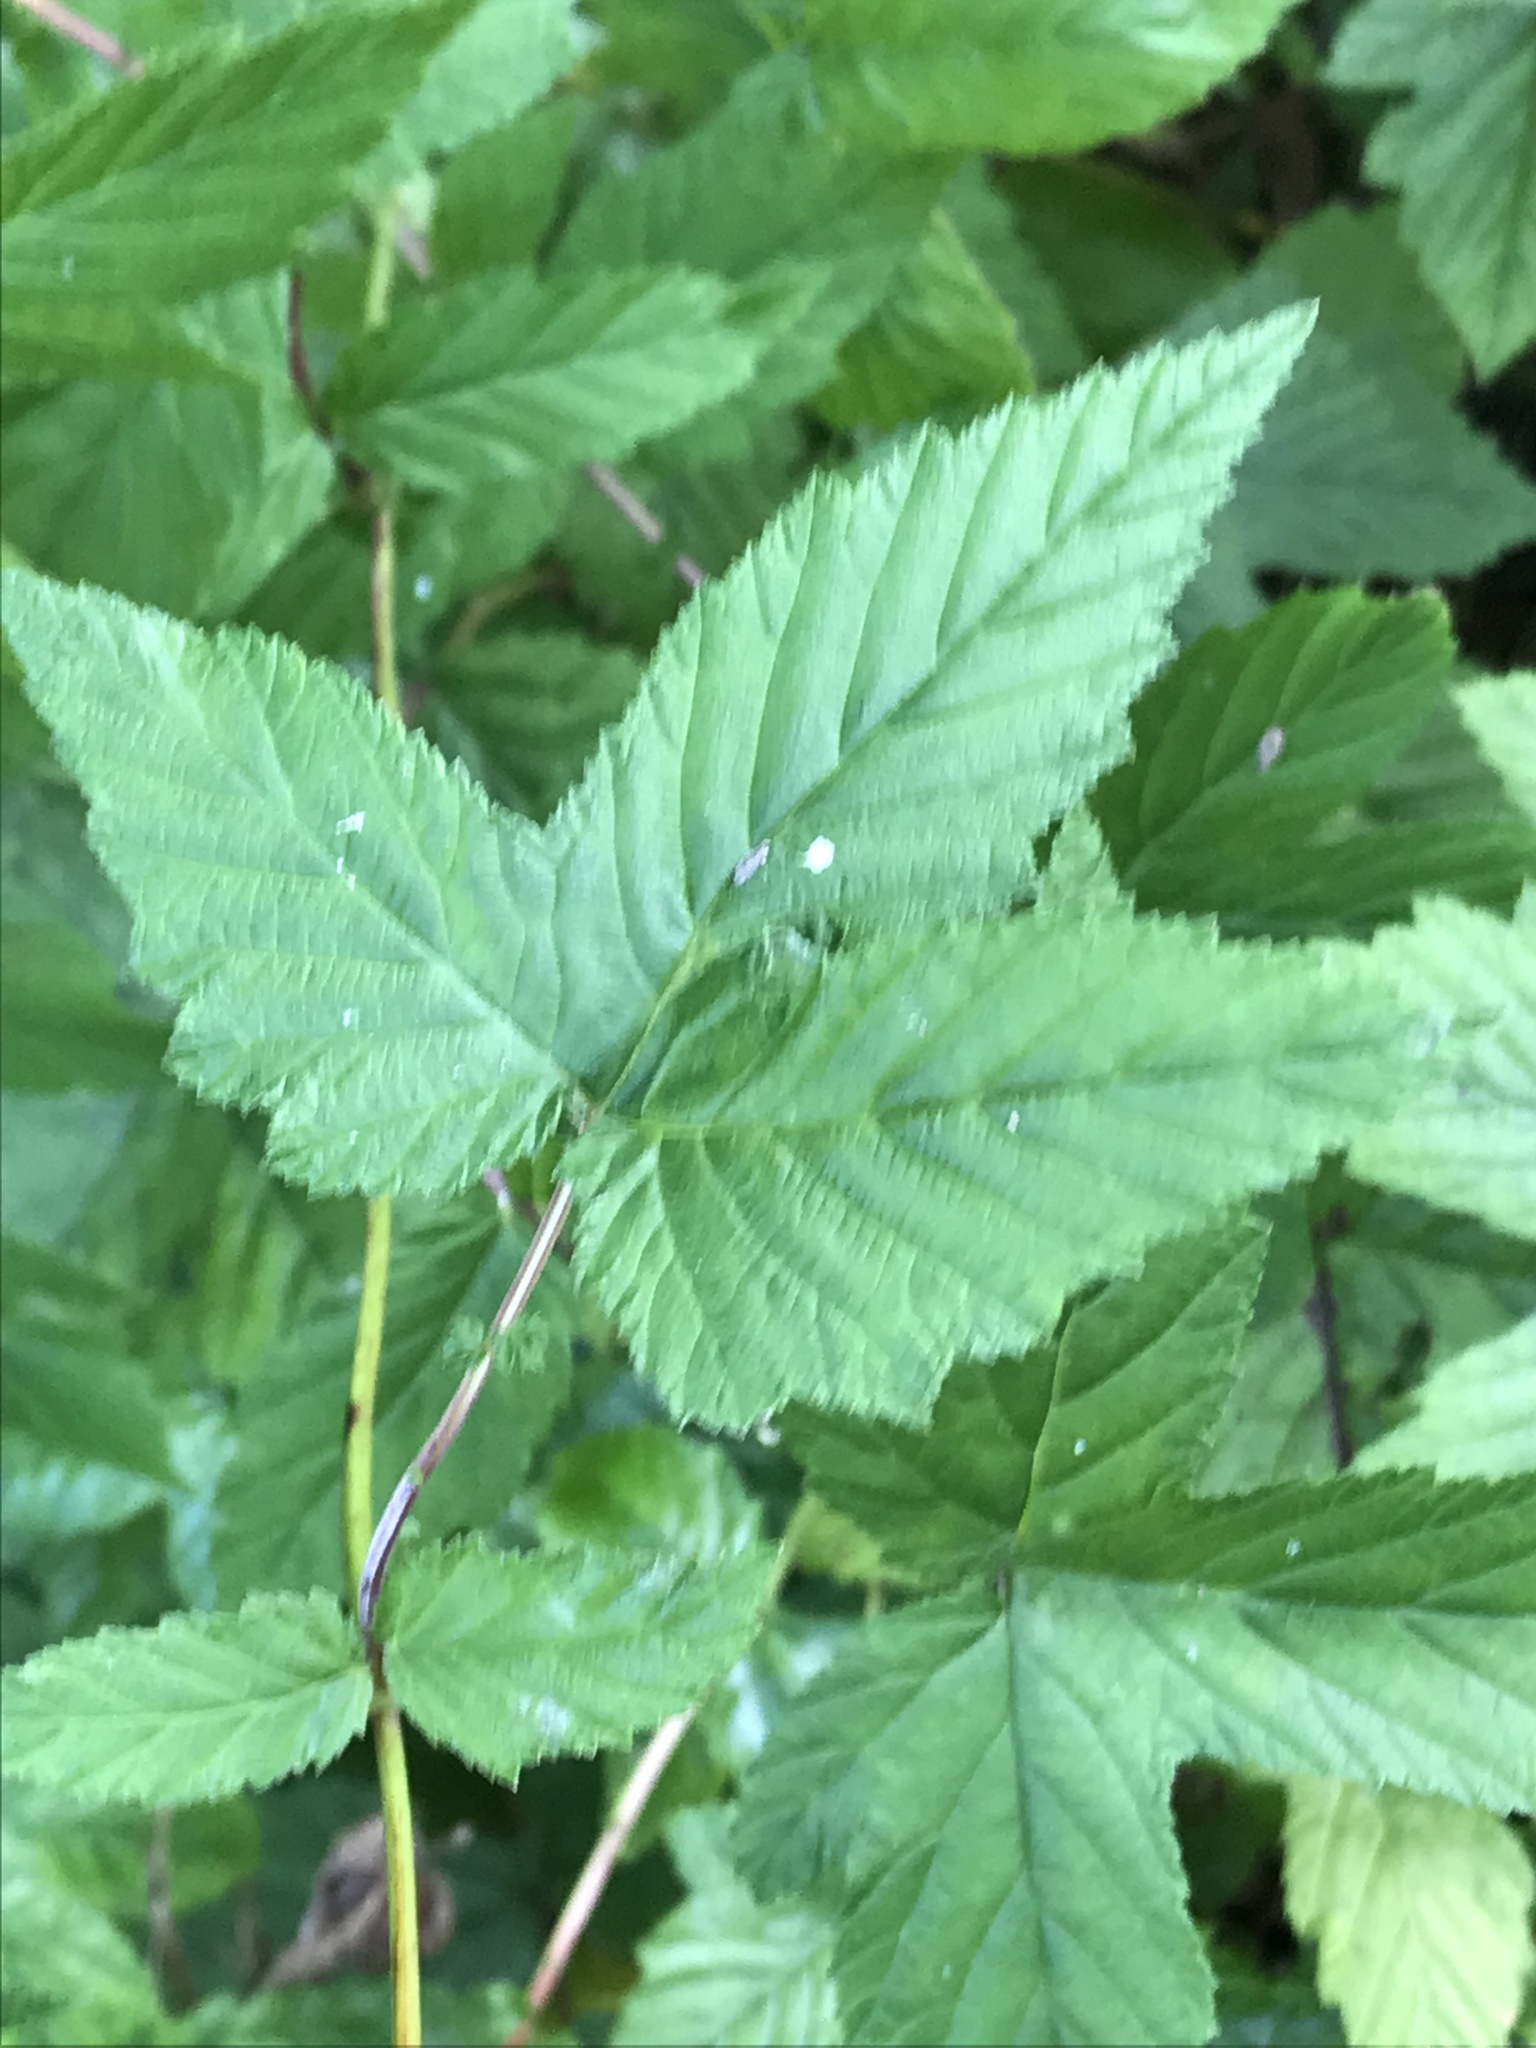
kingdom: Plantae
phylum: Tracheophyta
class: Magnoliopsida
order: Rosales
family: Rosaceae
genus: Filipendula
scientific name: Filipendula ulmaria
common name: Meadowsweet
